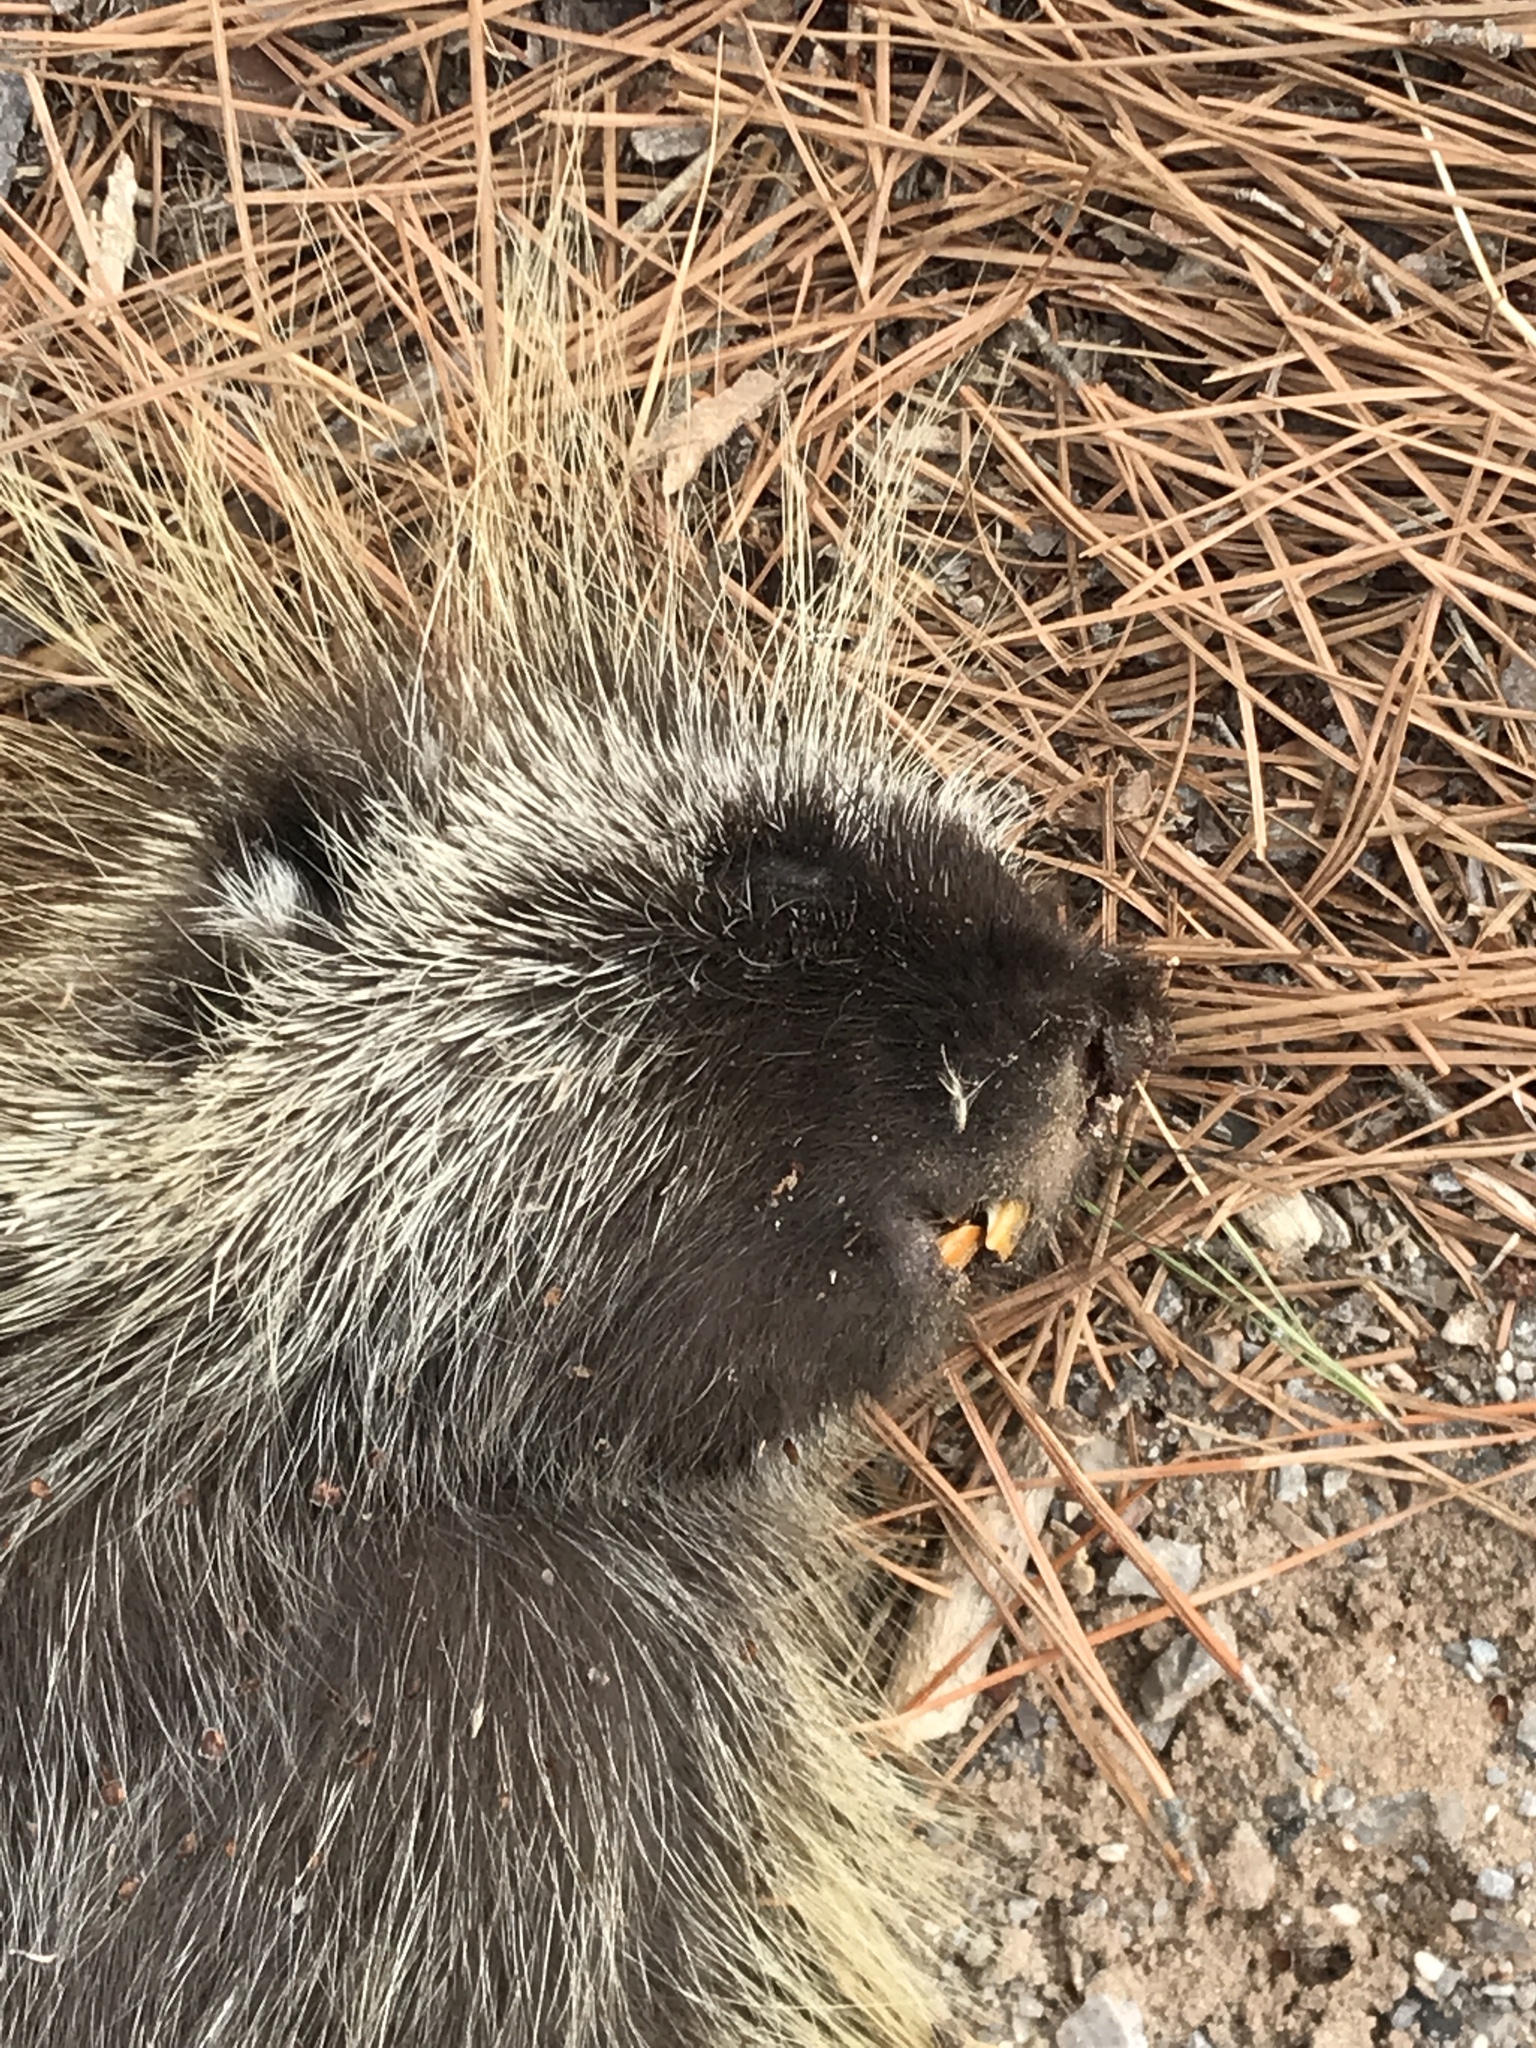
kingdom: Animalia
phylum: Chordata
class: Mammalia
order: Rodentia
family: Erethizontidae
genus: Erethizon
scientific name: Erethizon dorsatus
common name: North american porcupine
